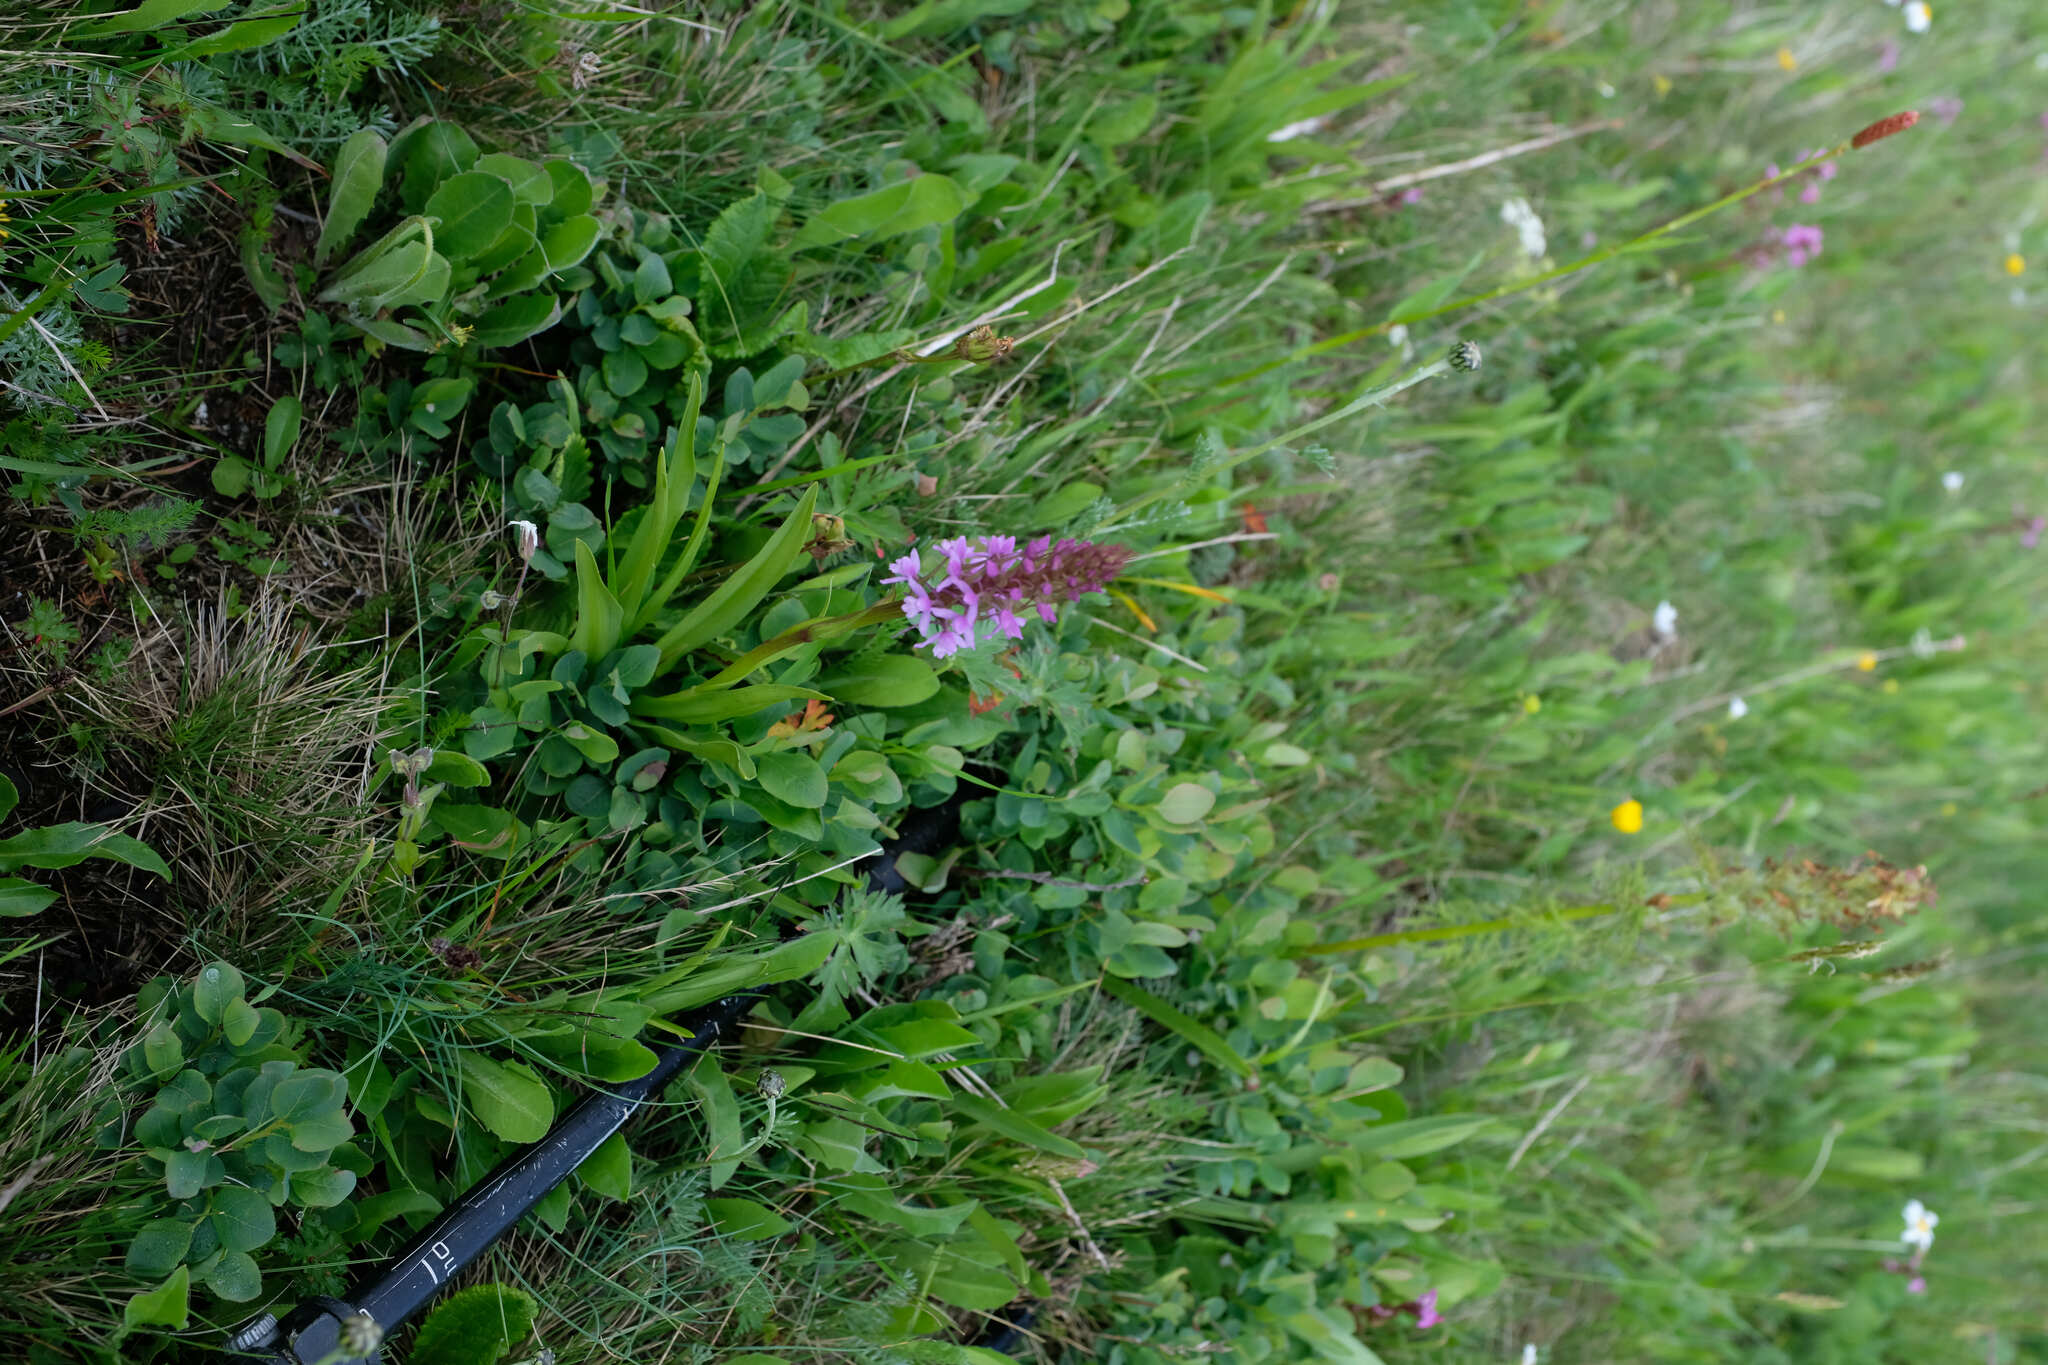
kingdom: Plantae
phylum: Tracheophyta
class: Liliopsida
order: Asparagales
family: Orchidaceae
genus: Gymnadenia
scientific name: Gymnadenia conopsea
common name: Fragrant orchid
